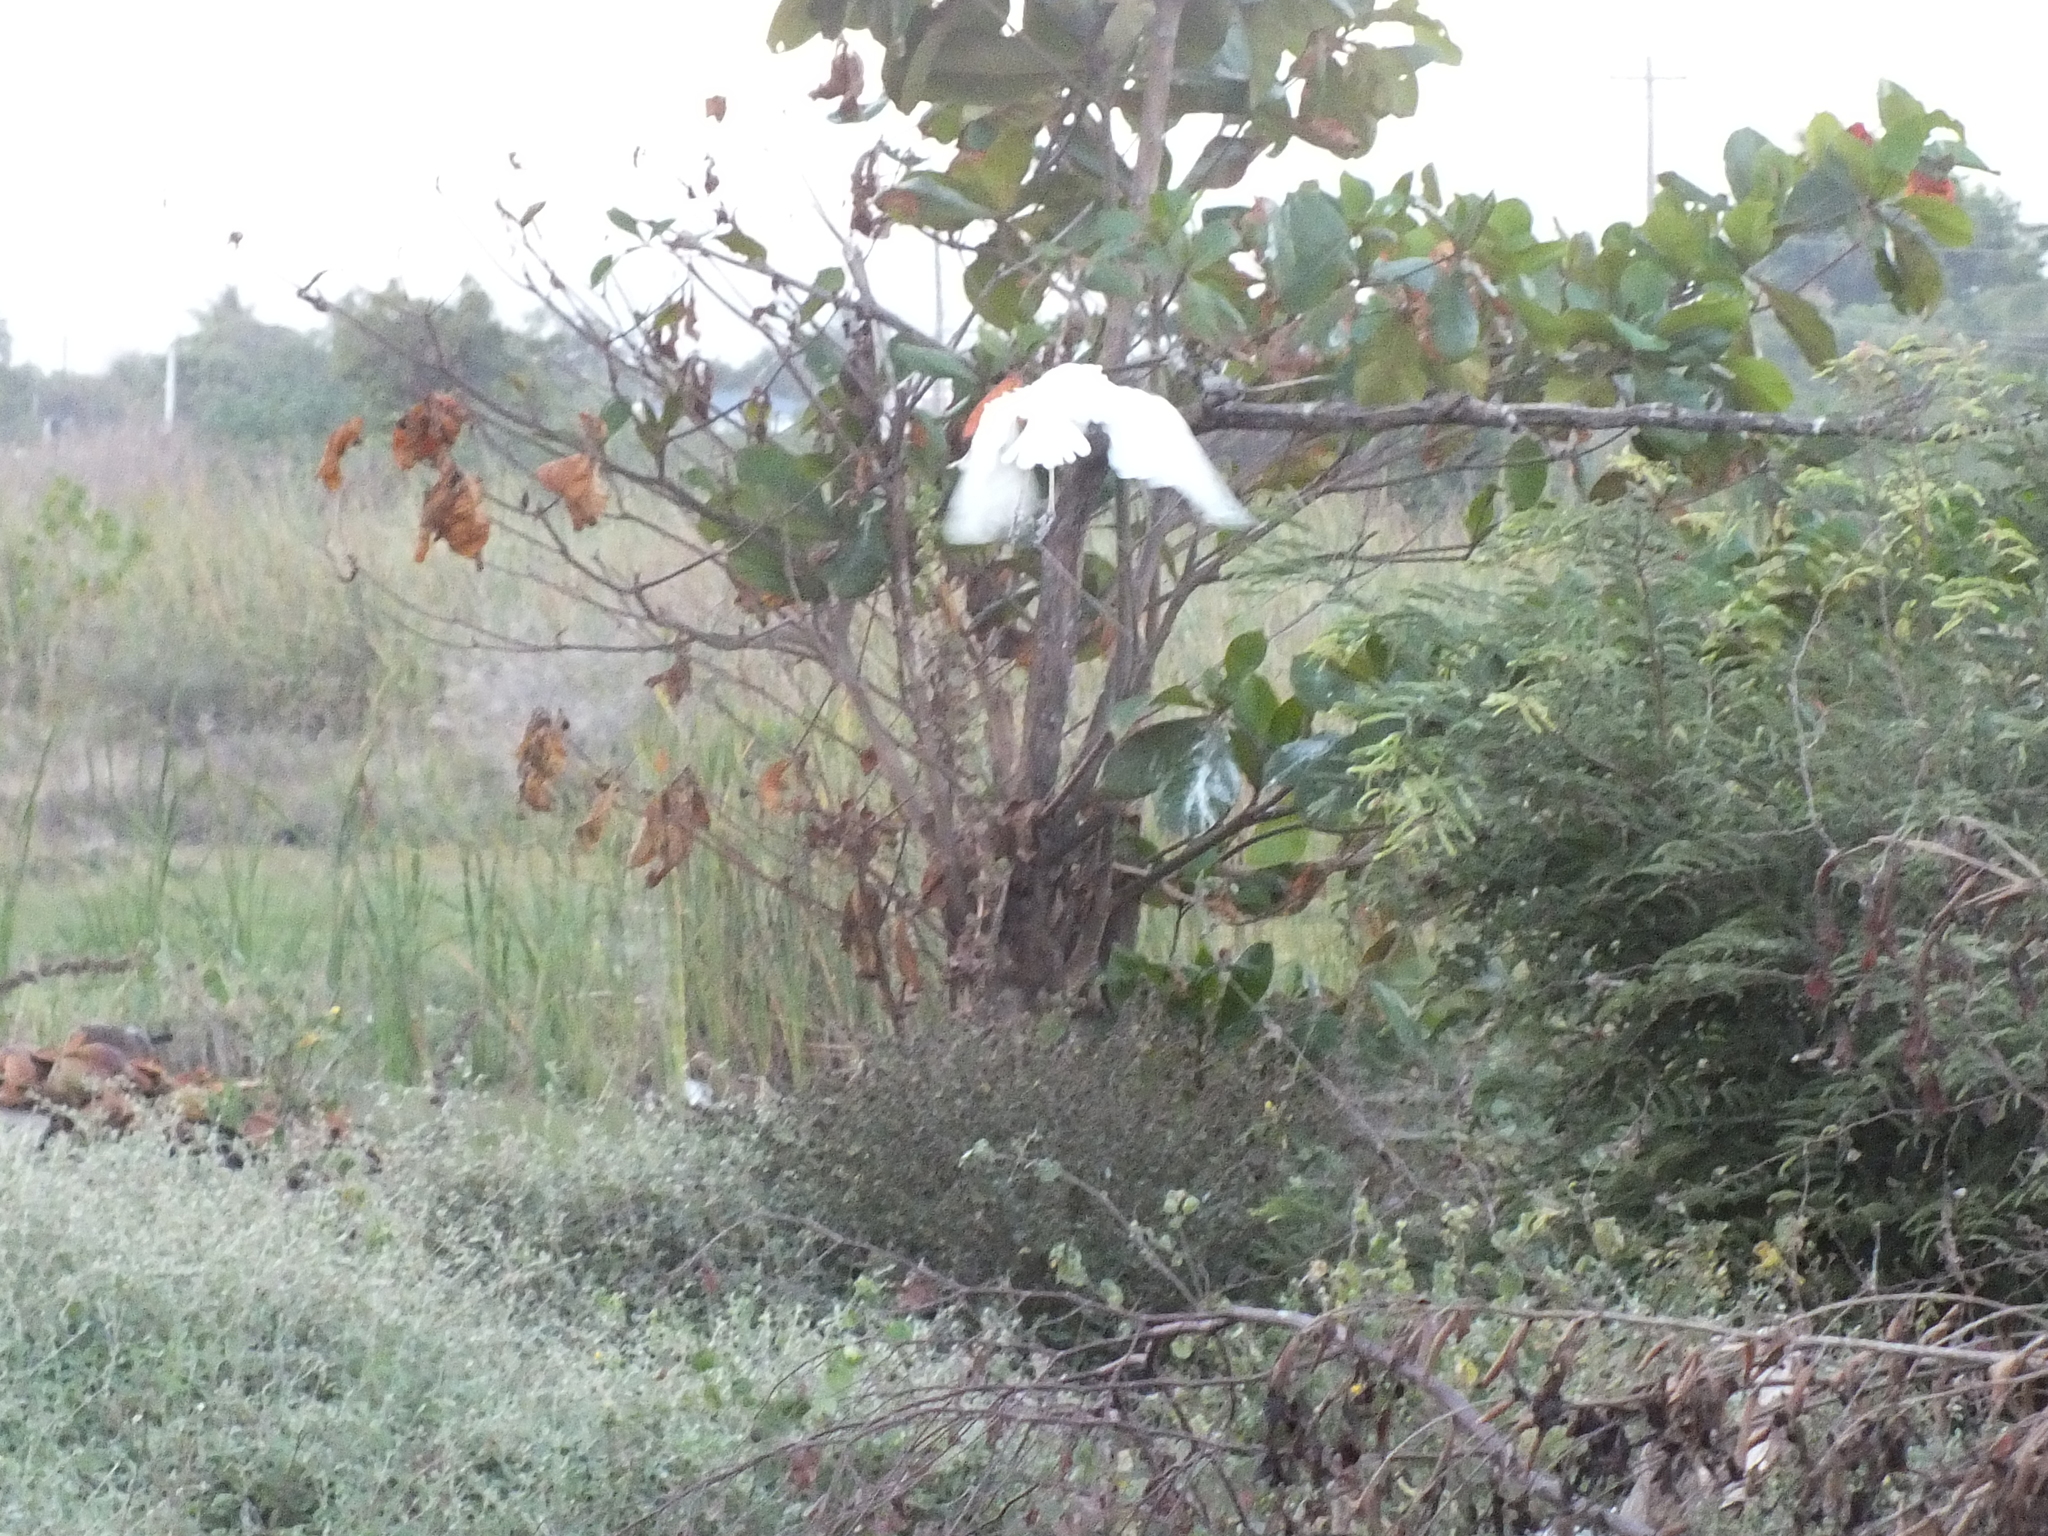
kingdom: Animalia
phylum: Chordata
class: Aves
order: Pelecaniformes
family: Ardeidae
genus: Bubulcus
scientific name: Bubulcus ibis
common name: Cattle egret
